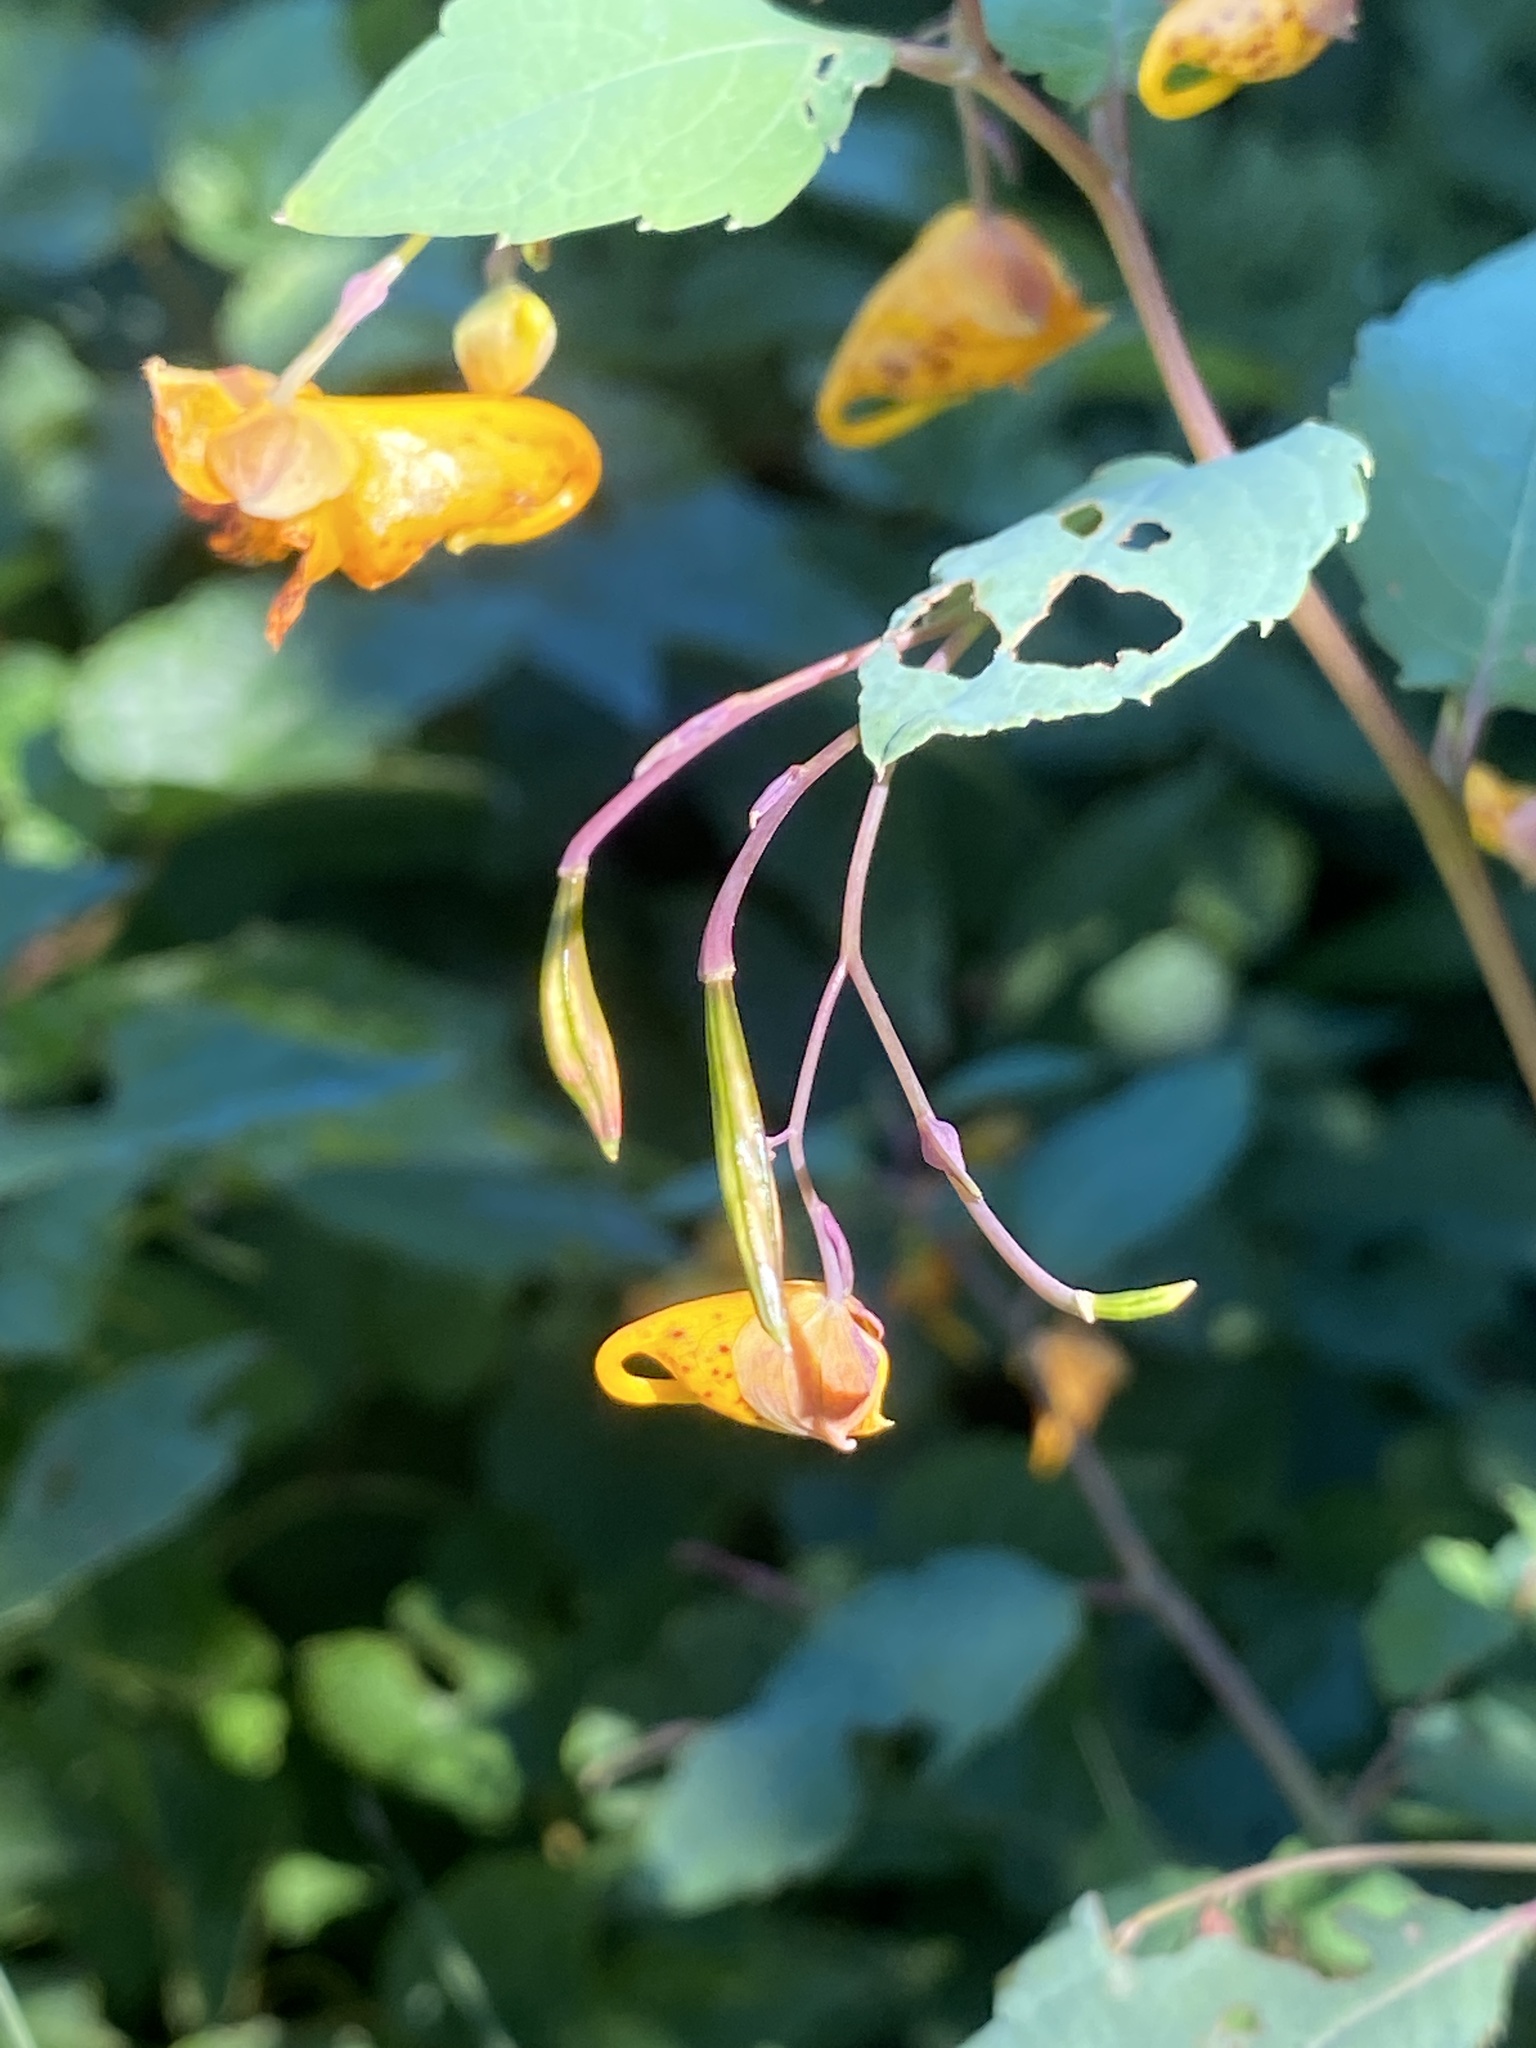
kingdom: Plantae
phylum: Tracheophyta
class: Magnoliopsida
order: Ericales
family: Balsaminaceae
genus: Impatiens
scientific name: Impatiens capensis
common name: Orange balsam
